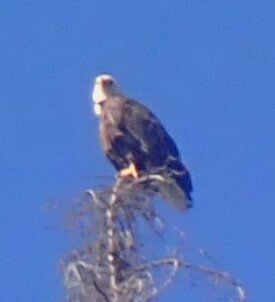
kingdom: Animalia
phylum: Chordata
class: Aves
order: Accipitriformes
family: Accipitridae
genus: Haliaeetus
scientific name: Haliaeetus leucocephalus
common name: Bald eagle
